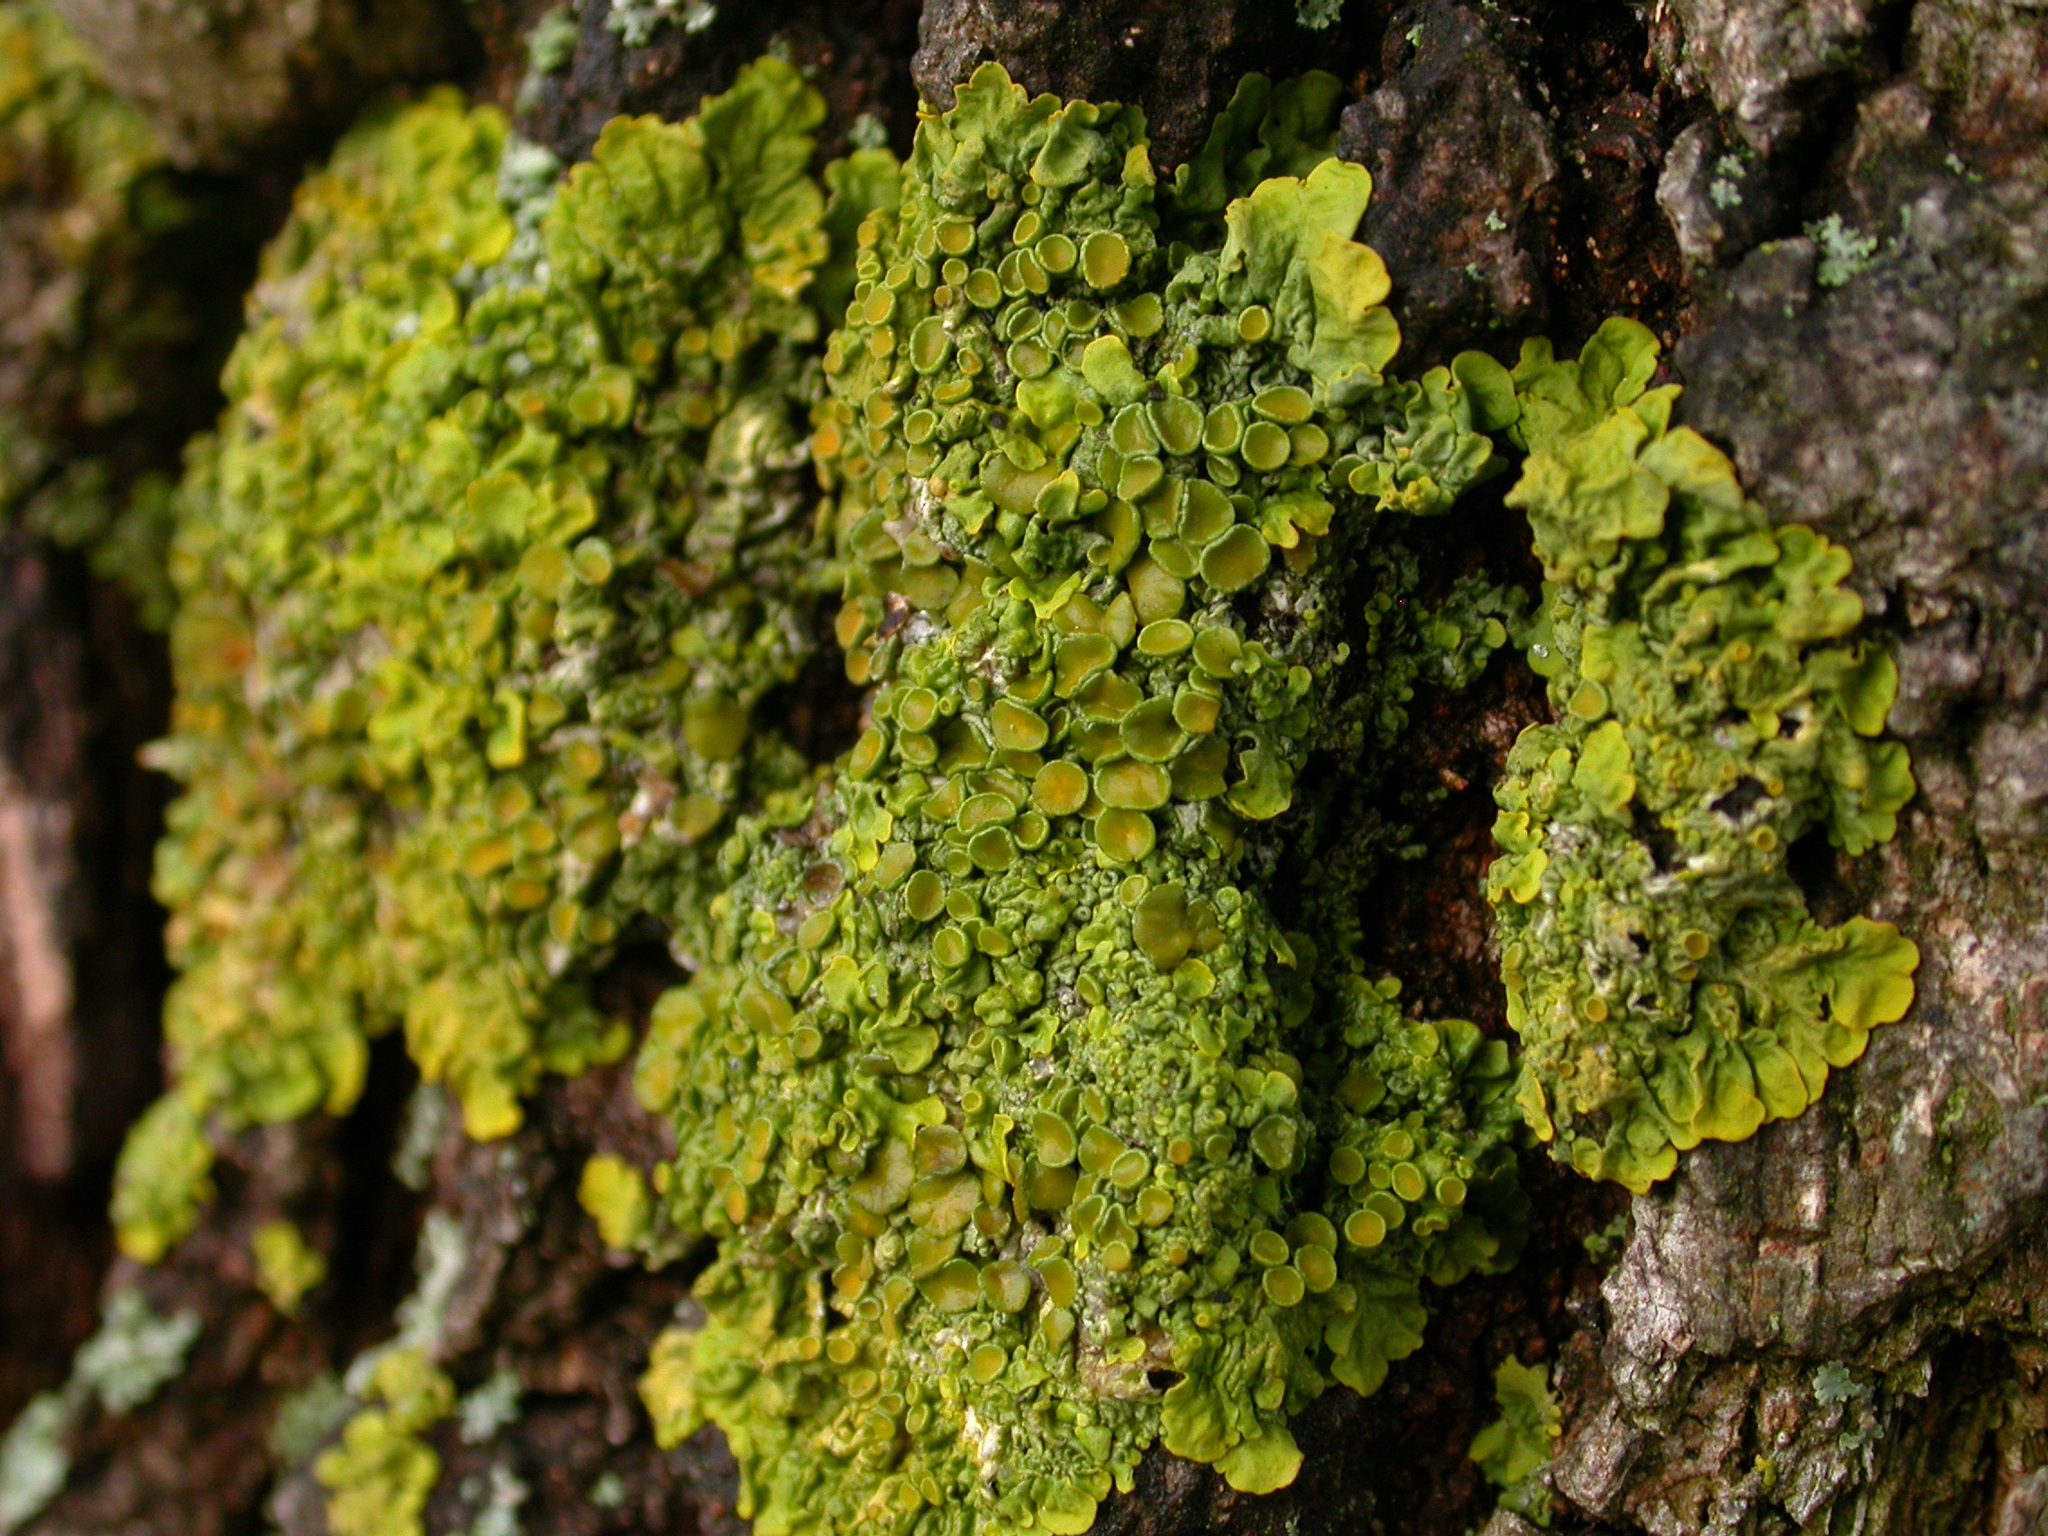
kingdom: Fungi
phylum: Ascomycota
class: Lecanoromycetes
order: Teloschistales
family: Teloschistaceae
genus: Xanthoria
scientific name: Xanthoria parietina
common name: Common orange lichen
